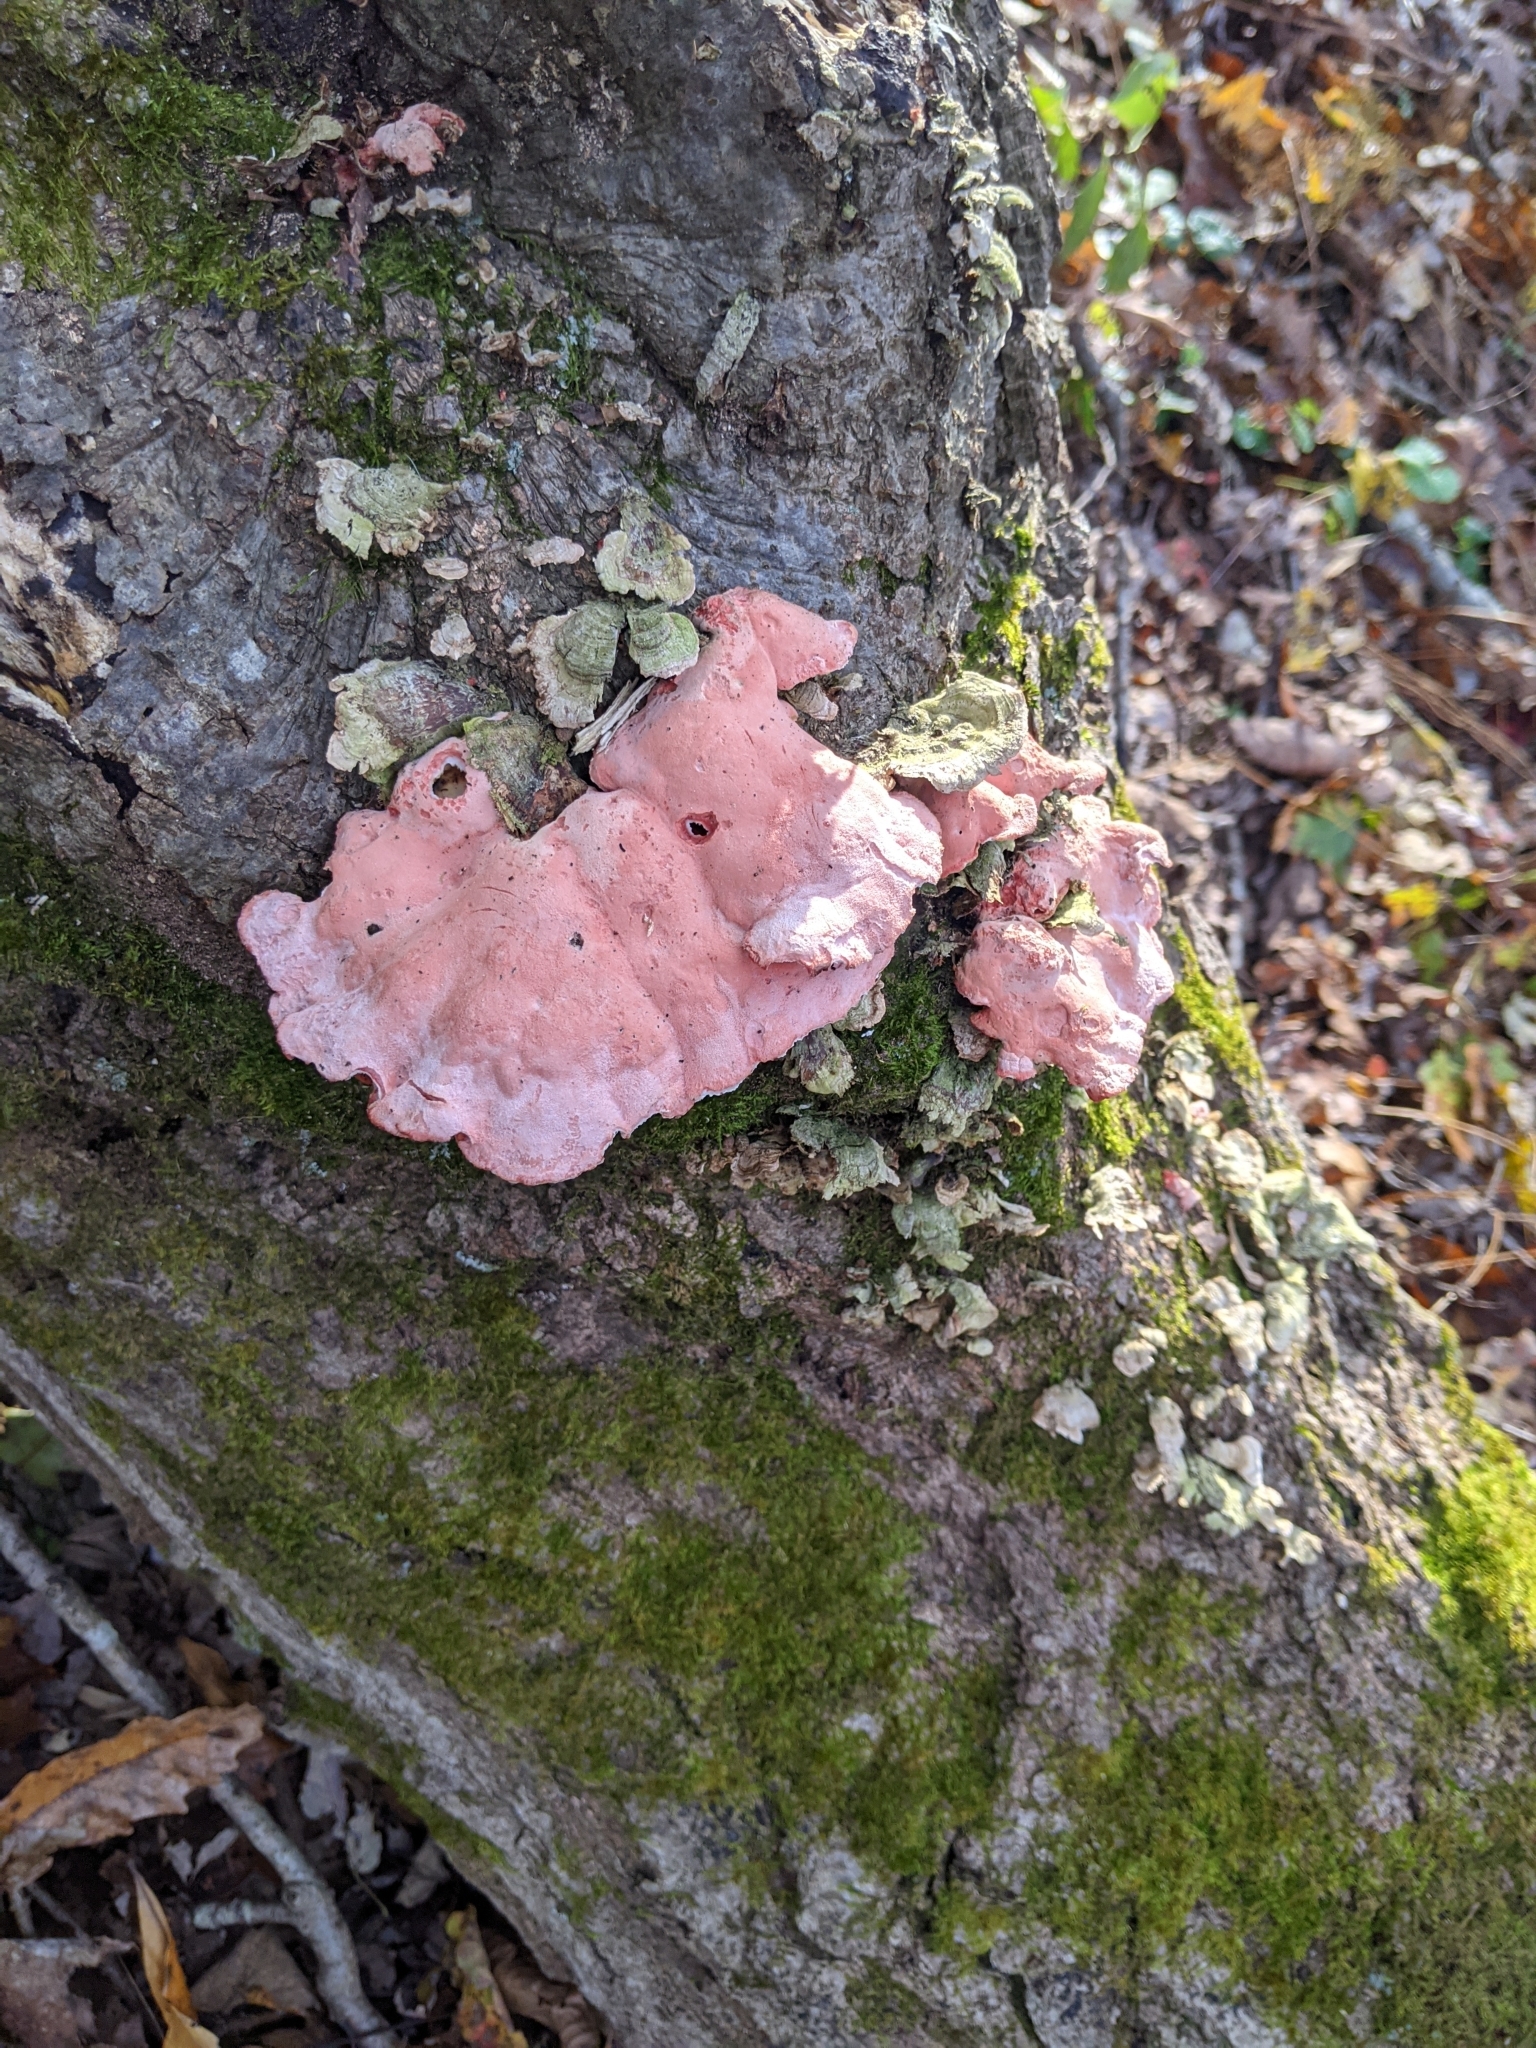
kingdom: Fungi
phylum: Basidiomycota
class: Agaricomycetes
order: Polyporales
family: Irpicaceae
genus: Byssomerulius
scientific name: Byssomerulius incarnatus
